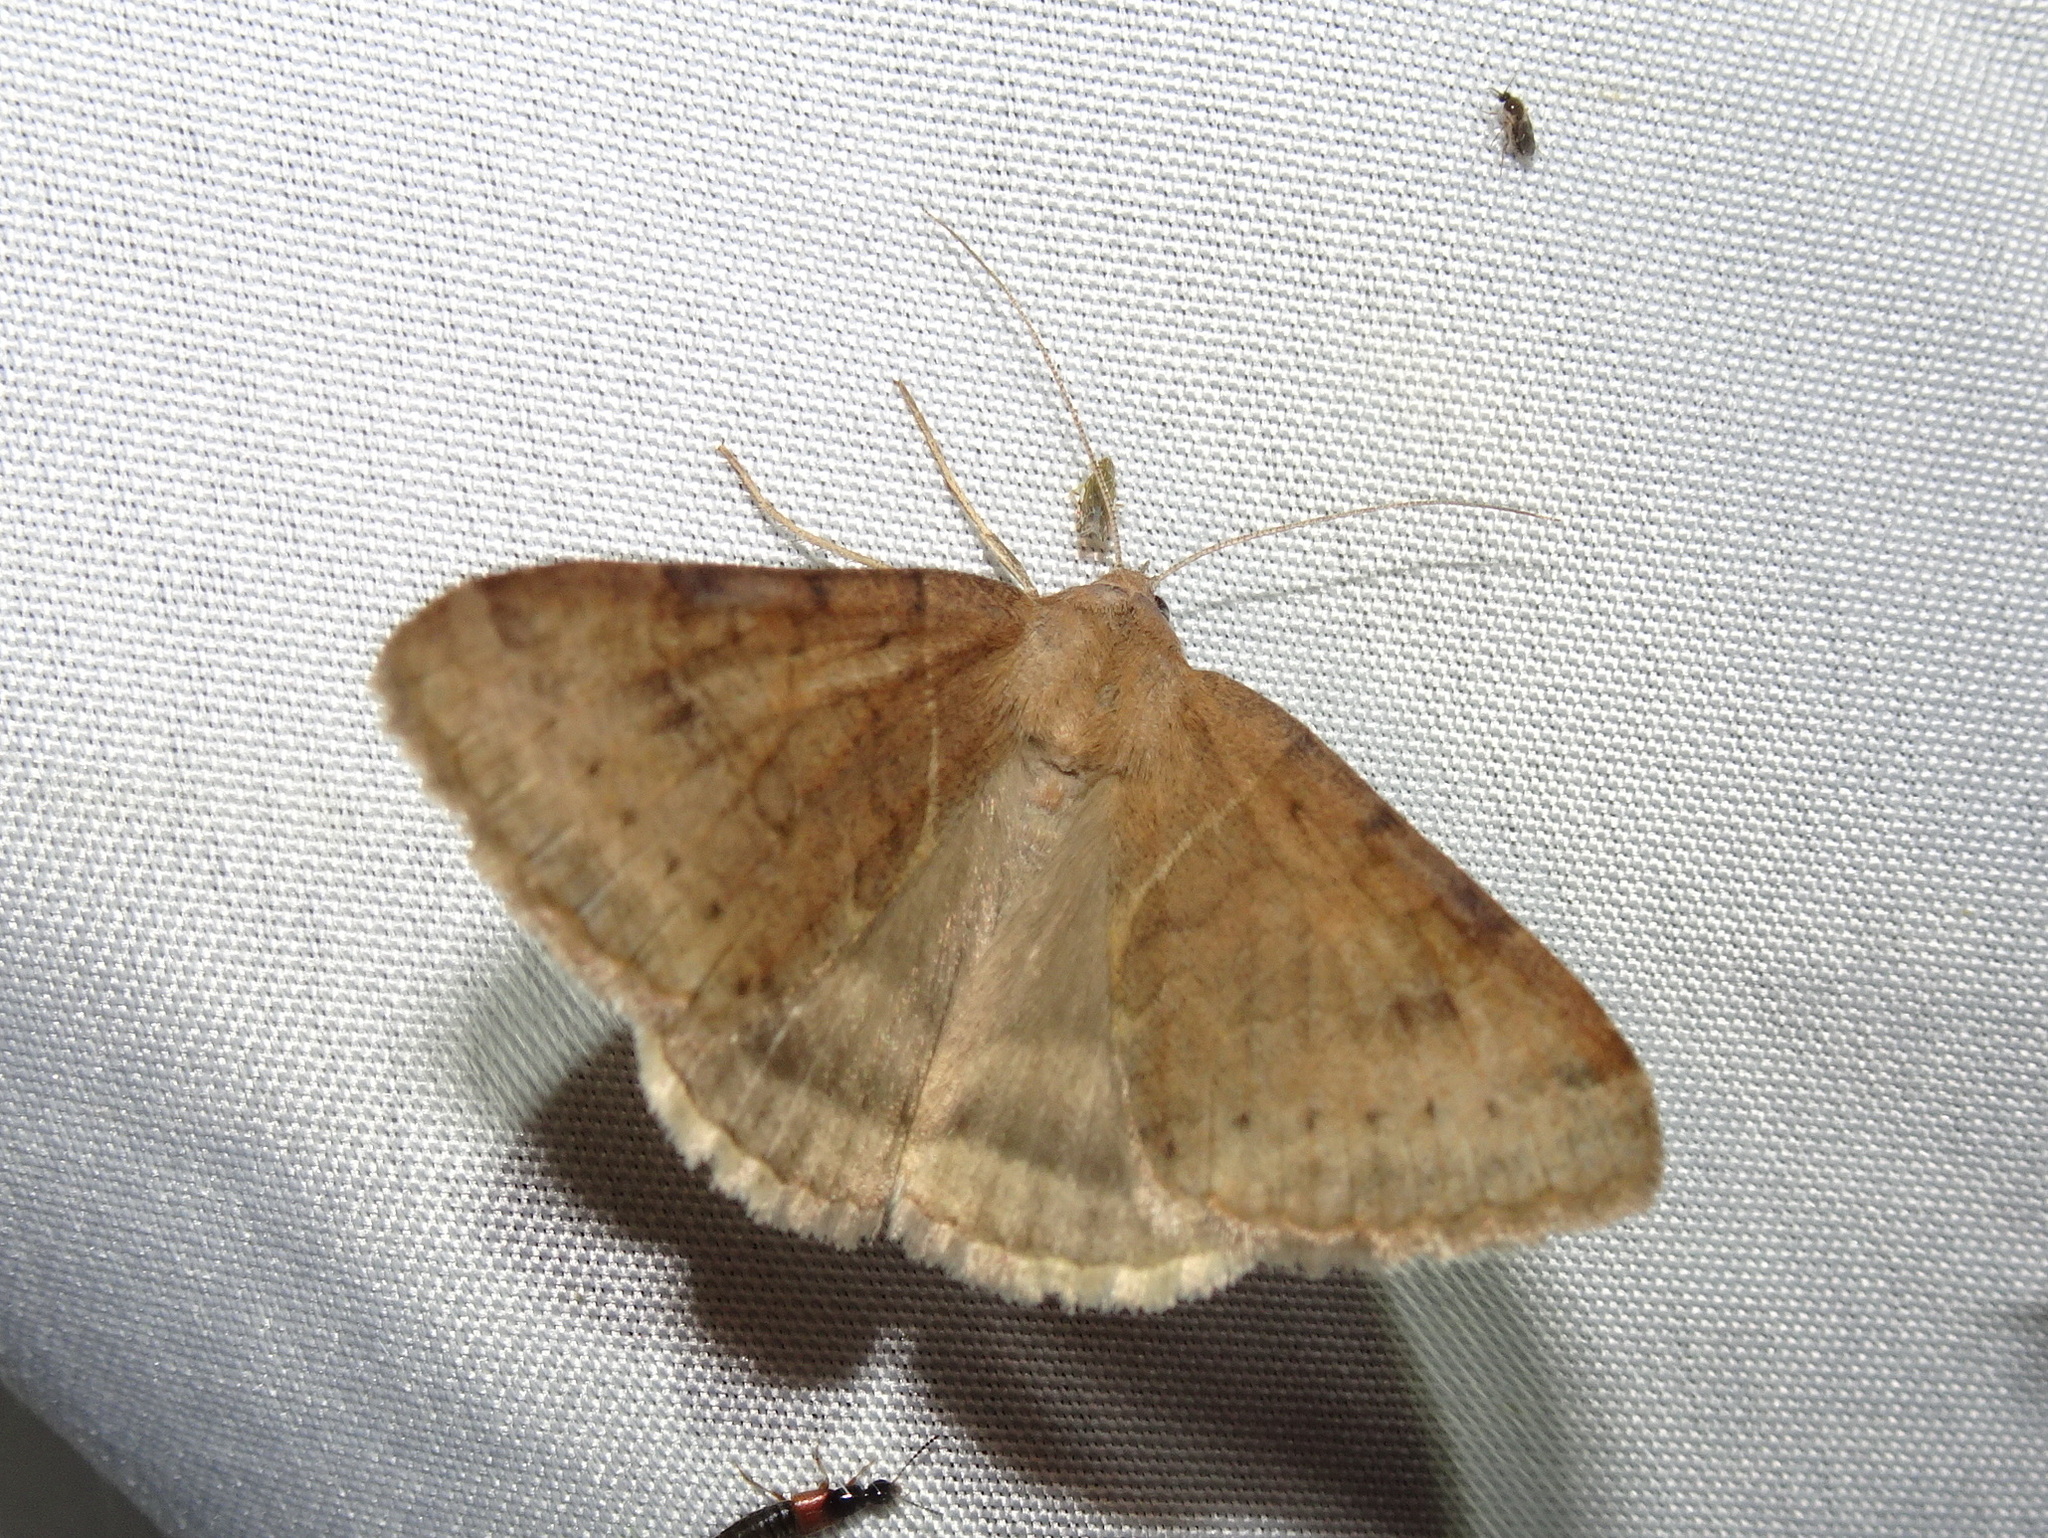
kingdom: Animalia
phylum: Arthropoda
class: Insecta
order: Lepidoptera
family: Erebidae
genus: Caenurgina
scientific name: Caenurgina erechtea
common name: Forage looper moth
